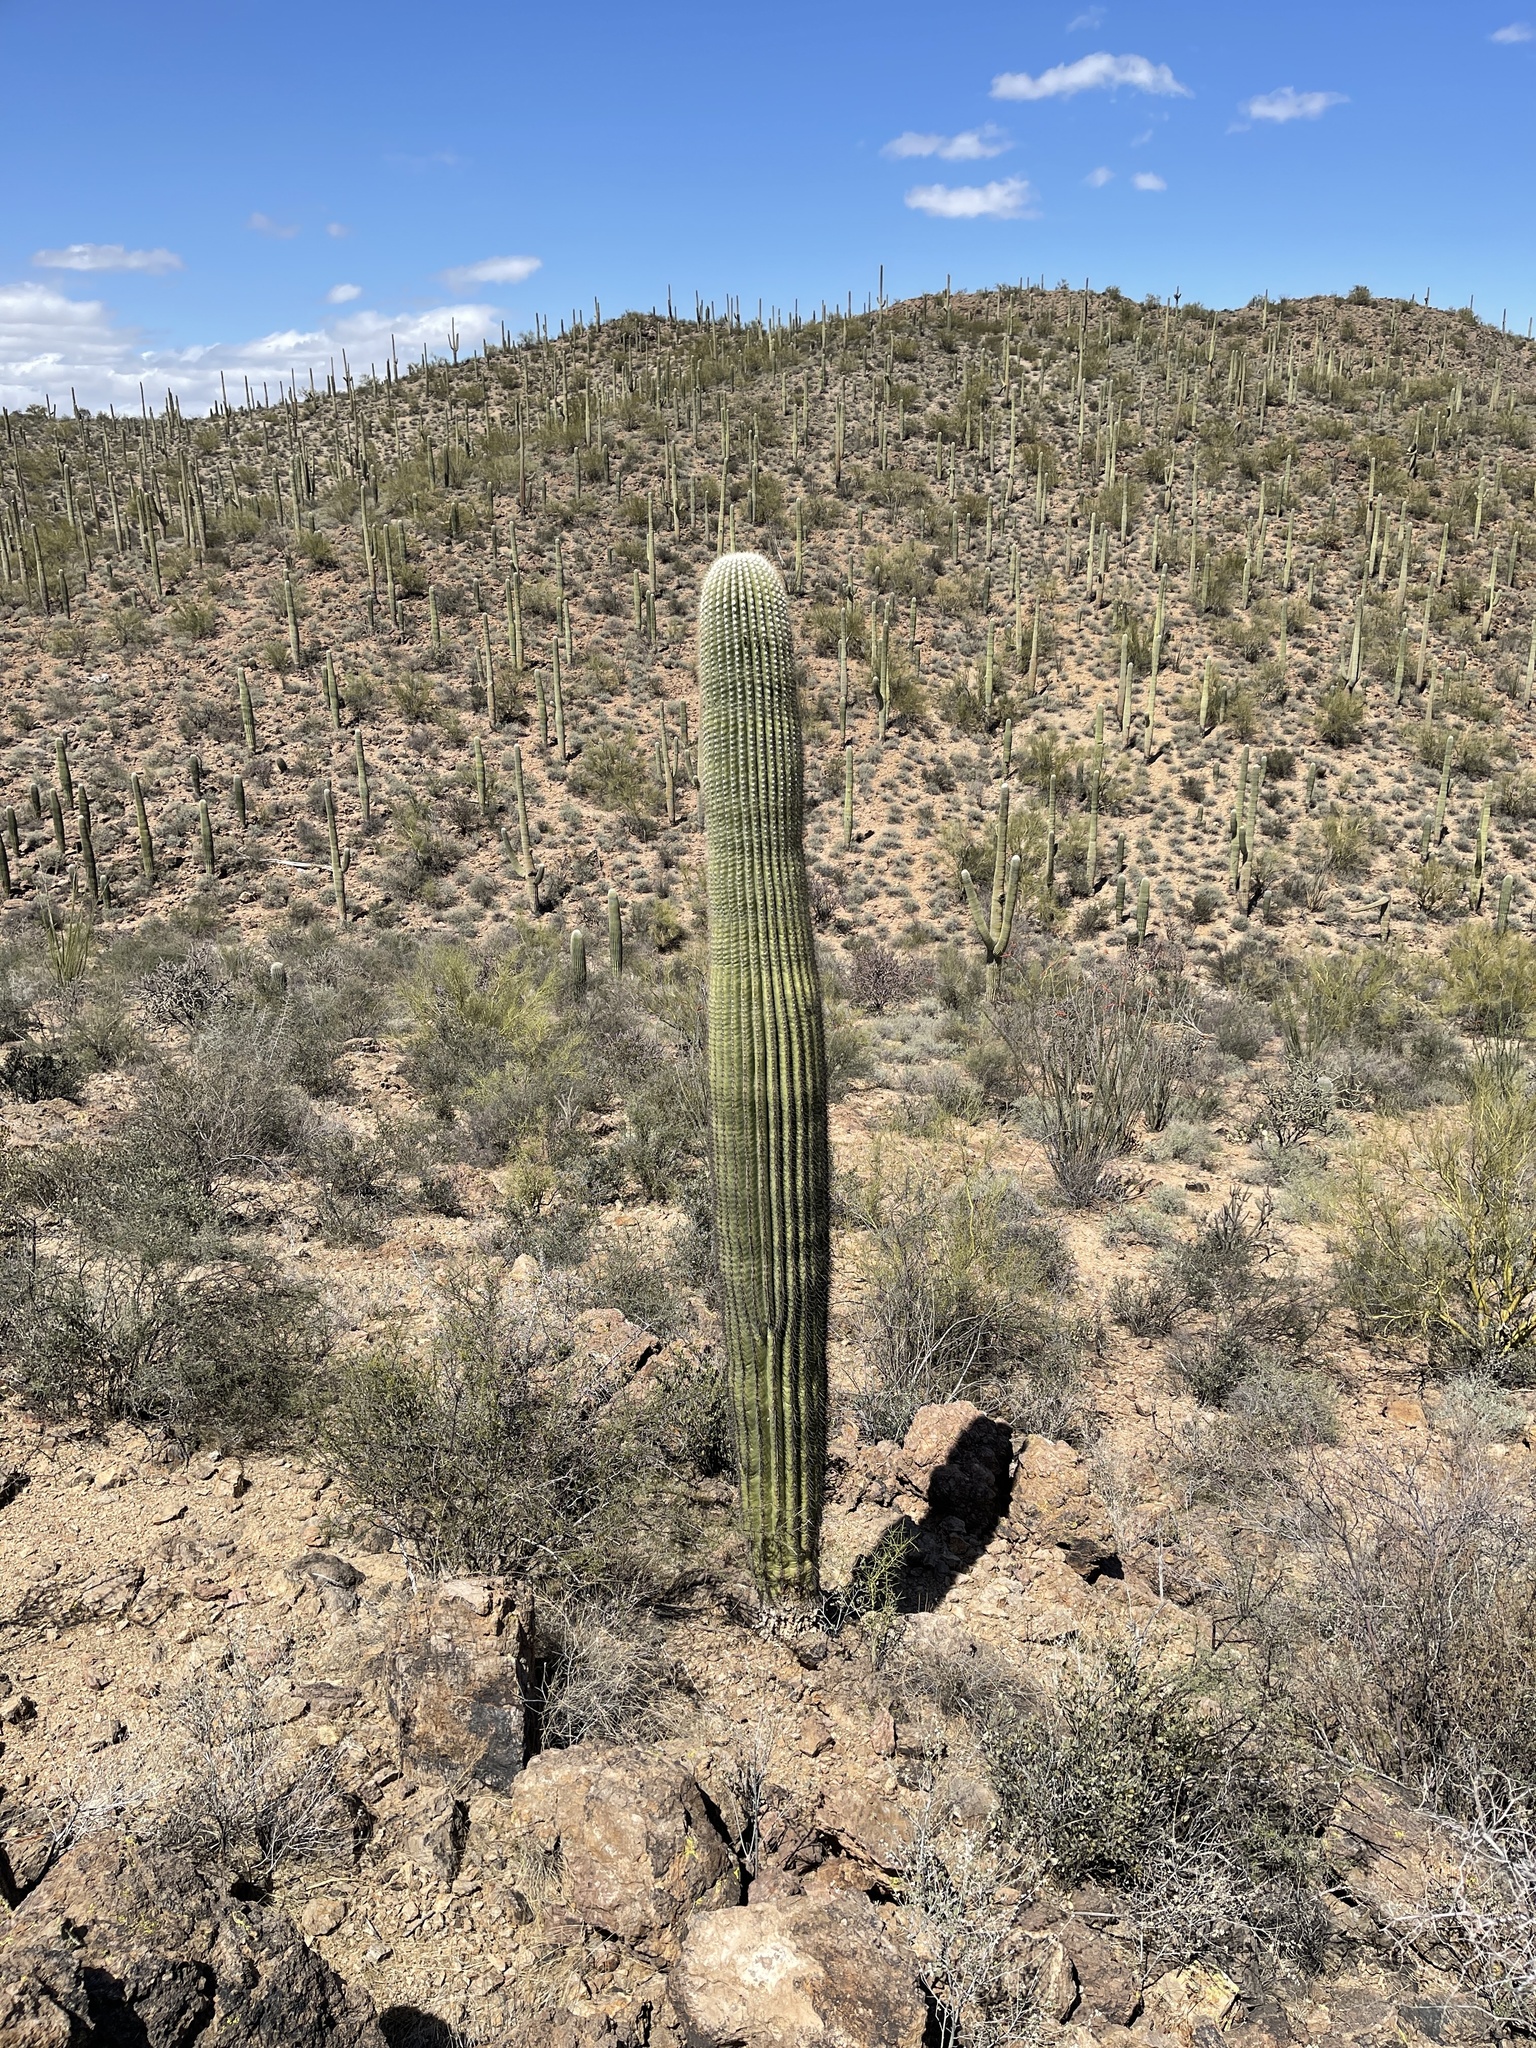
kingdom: Plantae
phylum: Tracheophyta
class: Magnoliopsida
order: Caryophyllales
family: Cactaceae
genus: Carnegiea
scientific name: Carnegiea gigantea
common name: Saguaro
